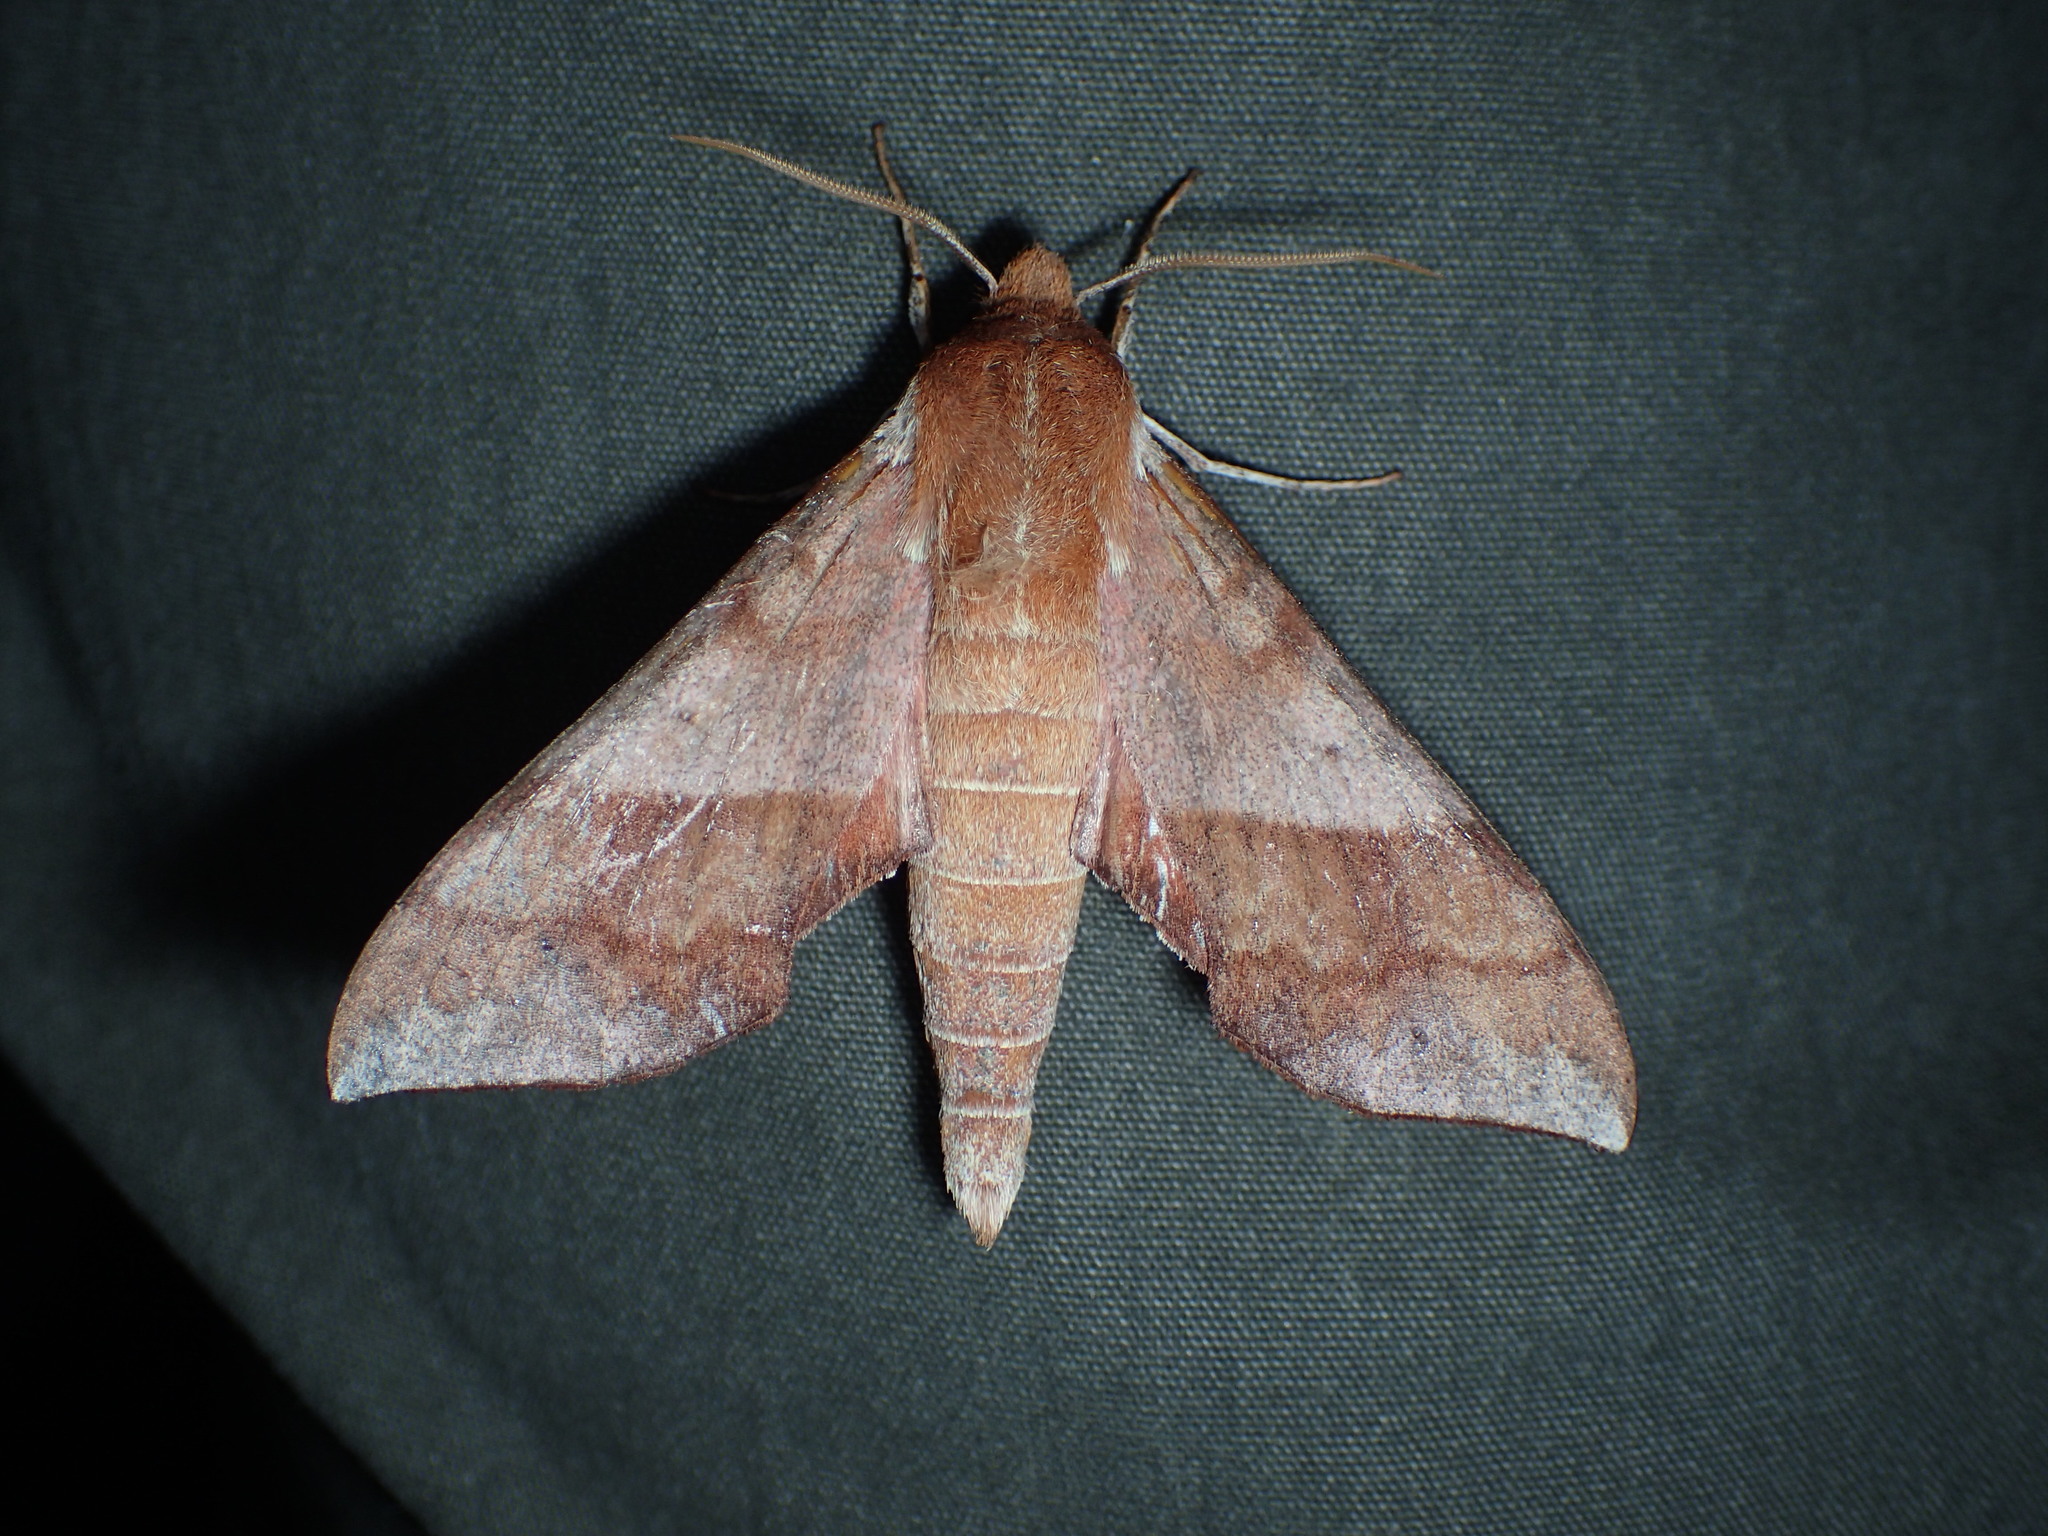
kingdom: Animalia
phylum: Arthropoda
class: Insecta
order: Lepidoptera
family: Sphingidae
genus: Darapsa
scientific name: Darapsa choerilus
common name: Azalea sphinx
